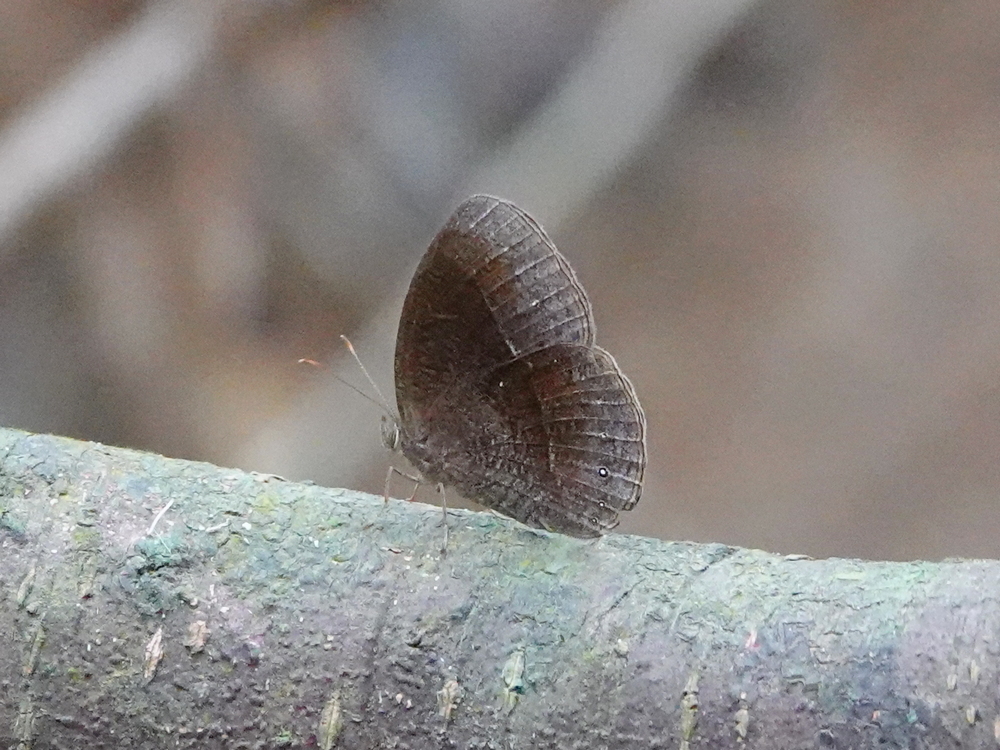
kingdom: Animalia
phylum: Arthropoda
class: Insecta
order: Lepidoptera
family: Nymphalidae
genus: Mycalesis
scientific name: Mycalesis Telinga inopia
